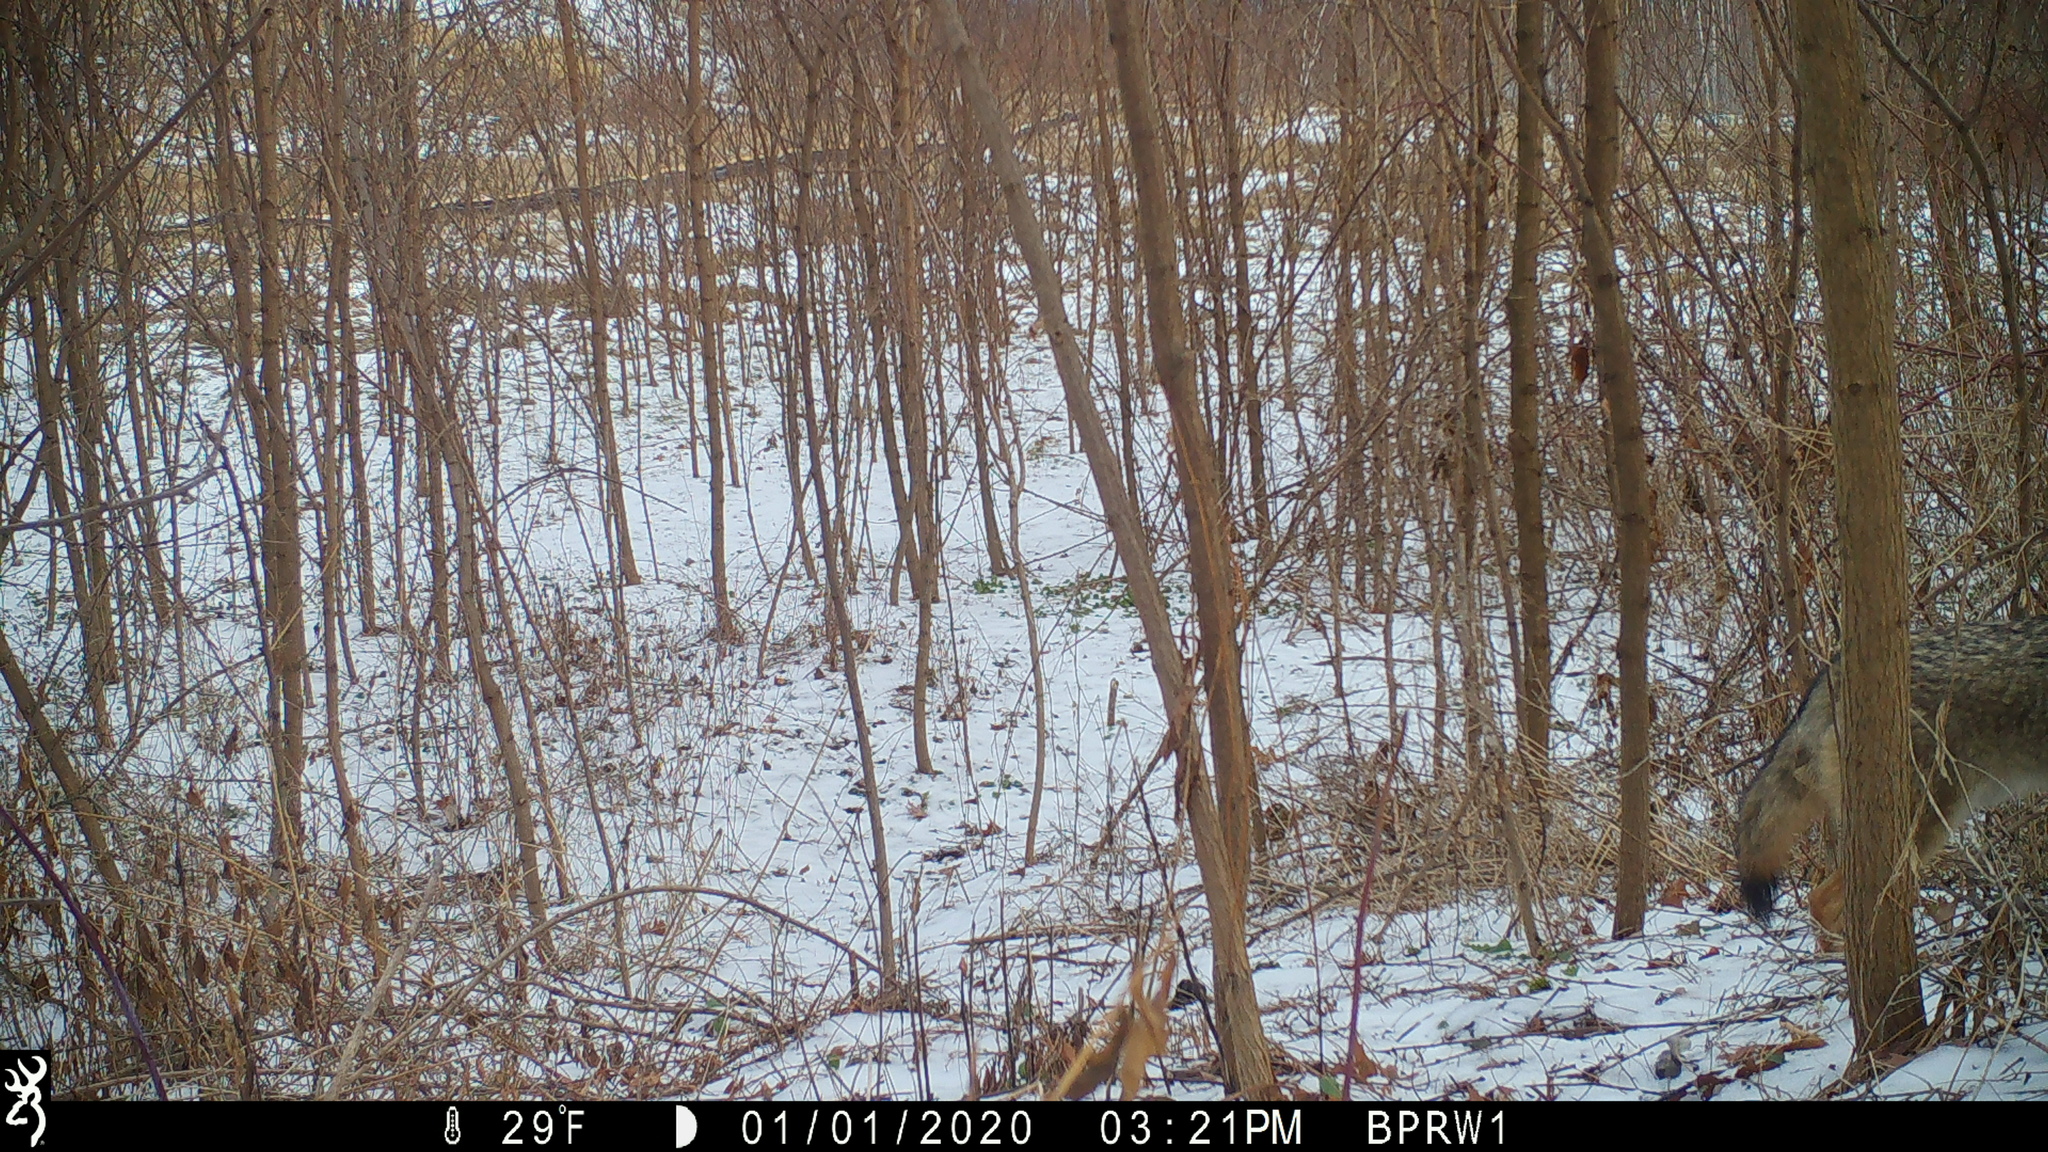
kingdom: Animalia
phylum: Chordata
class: Mammalia
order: Carnivora
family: Canidae
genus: Canis
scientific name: Canis latrans
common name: Coyote
